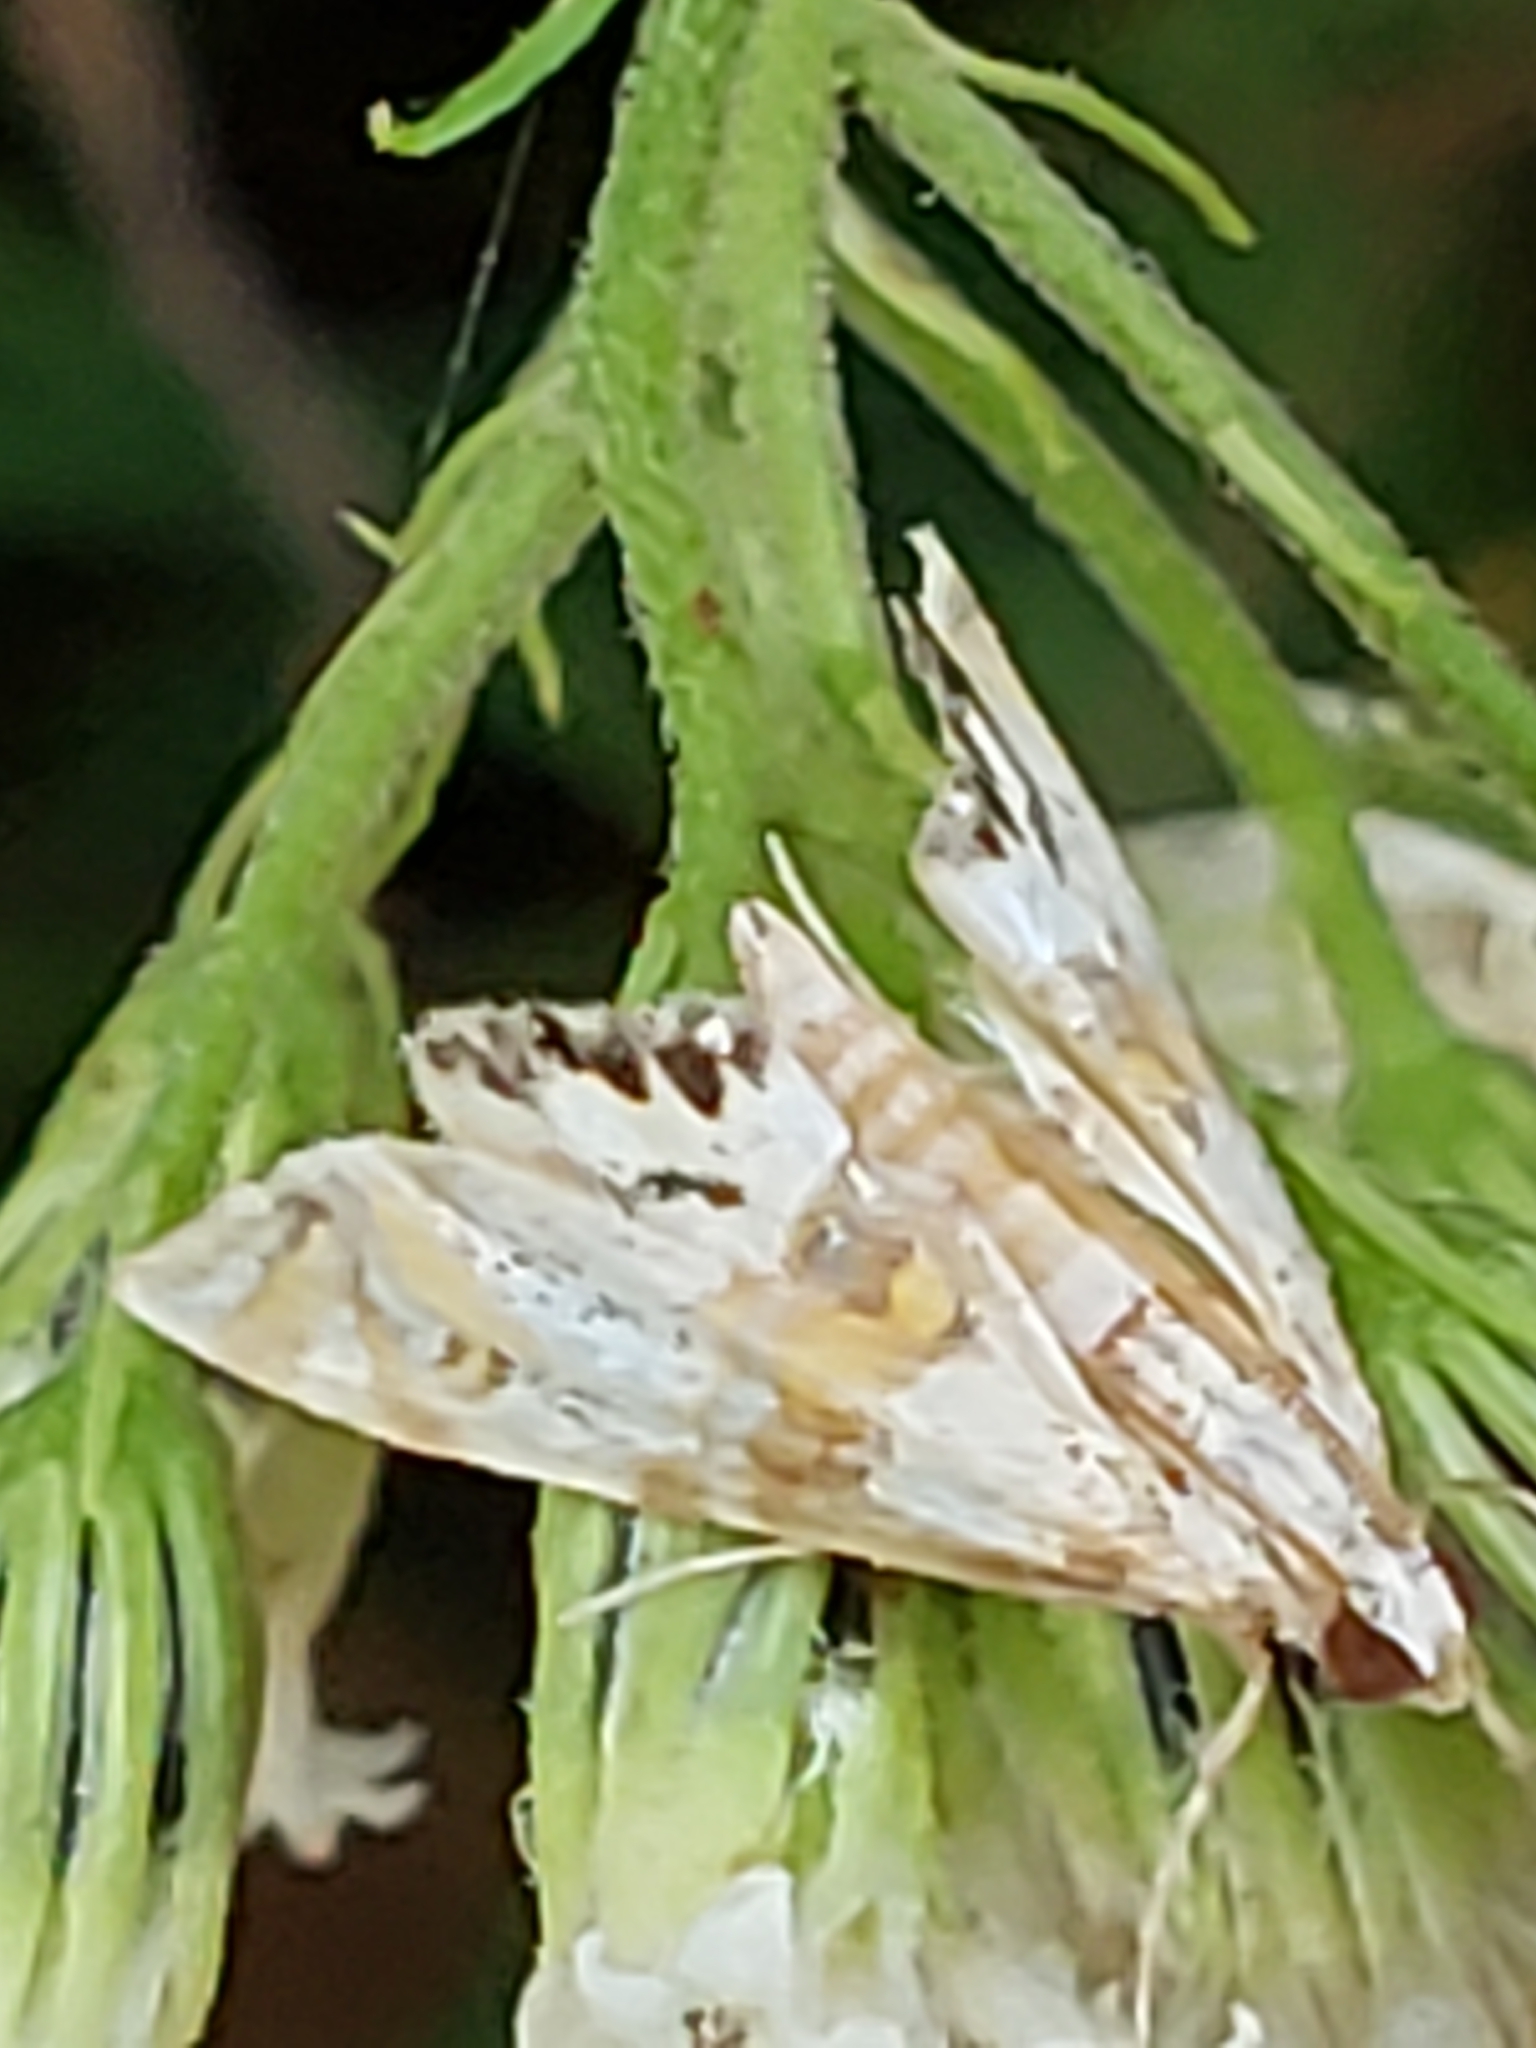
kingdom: Animalia
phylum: Arthropoda
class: Insecta
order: Lepidoptera
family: Crambidae
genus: Petrophila
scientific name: Petrophila bifascialis
